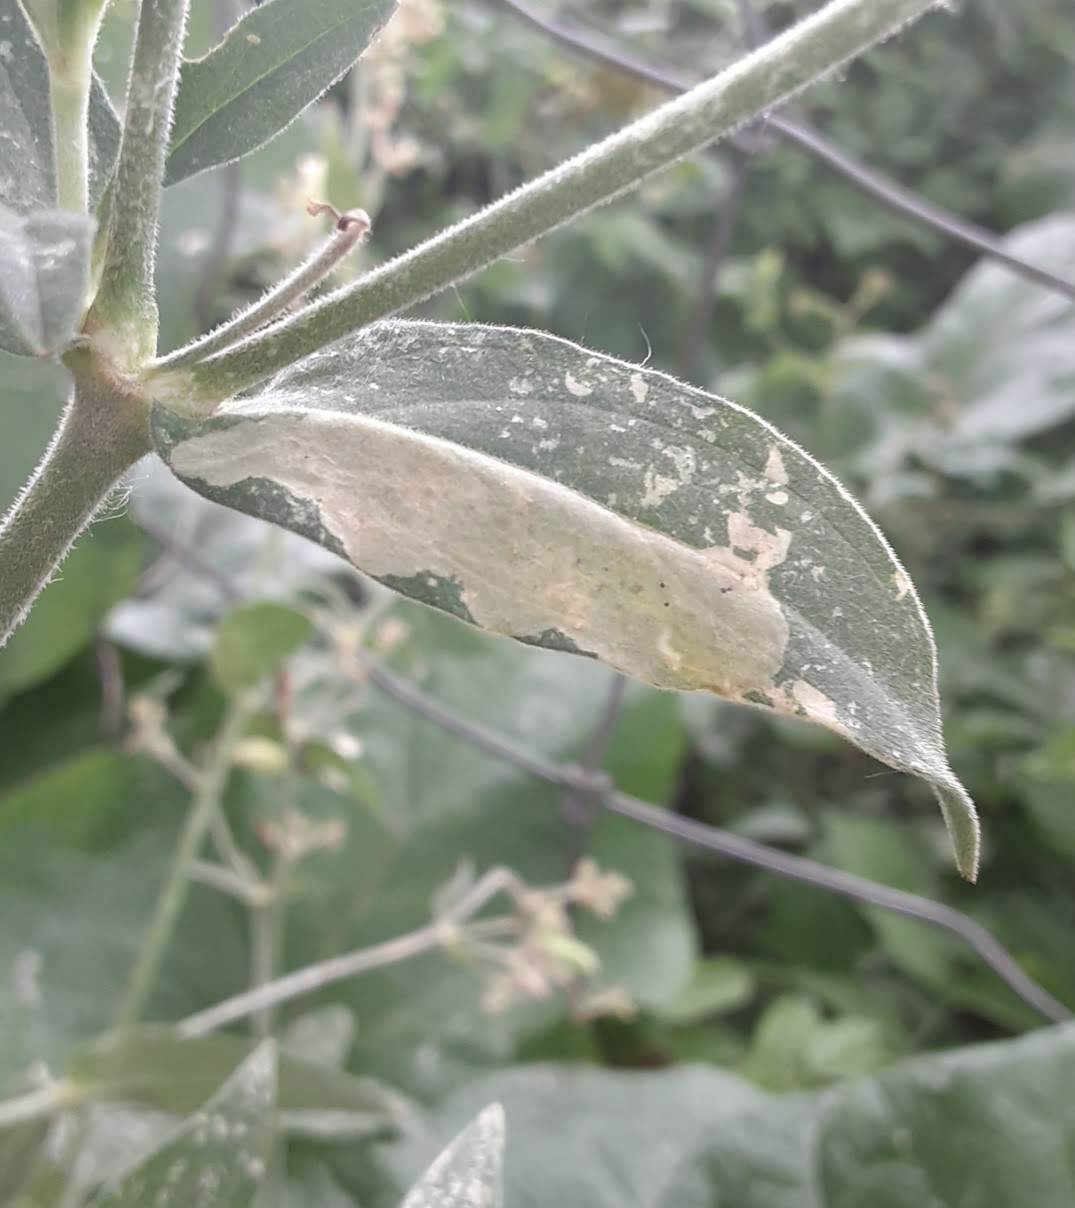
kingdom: Animalia
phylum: Arthropoda
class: Insecta
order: Diptera
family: Agromyzidae
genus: Amauromyza
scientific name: Amauromyza flavifrons
